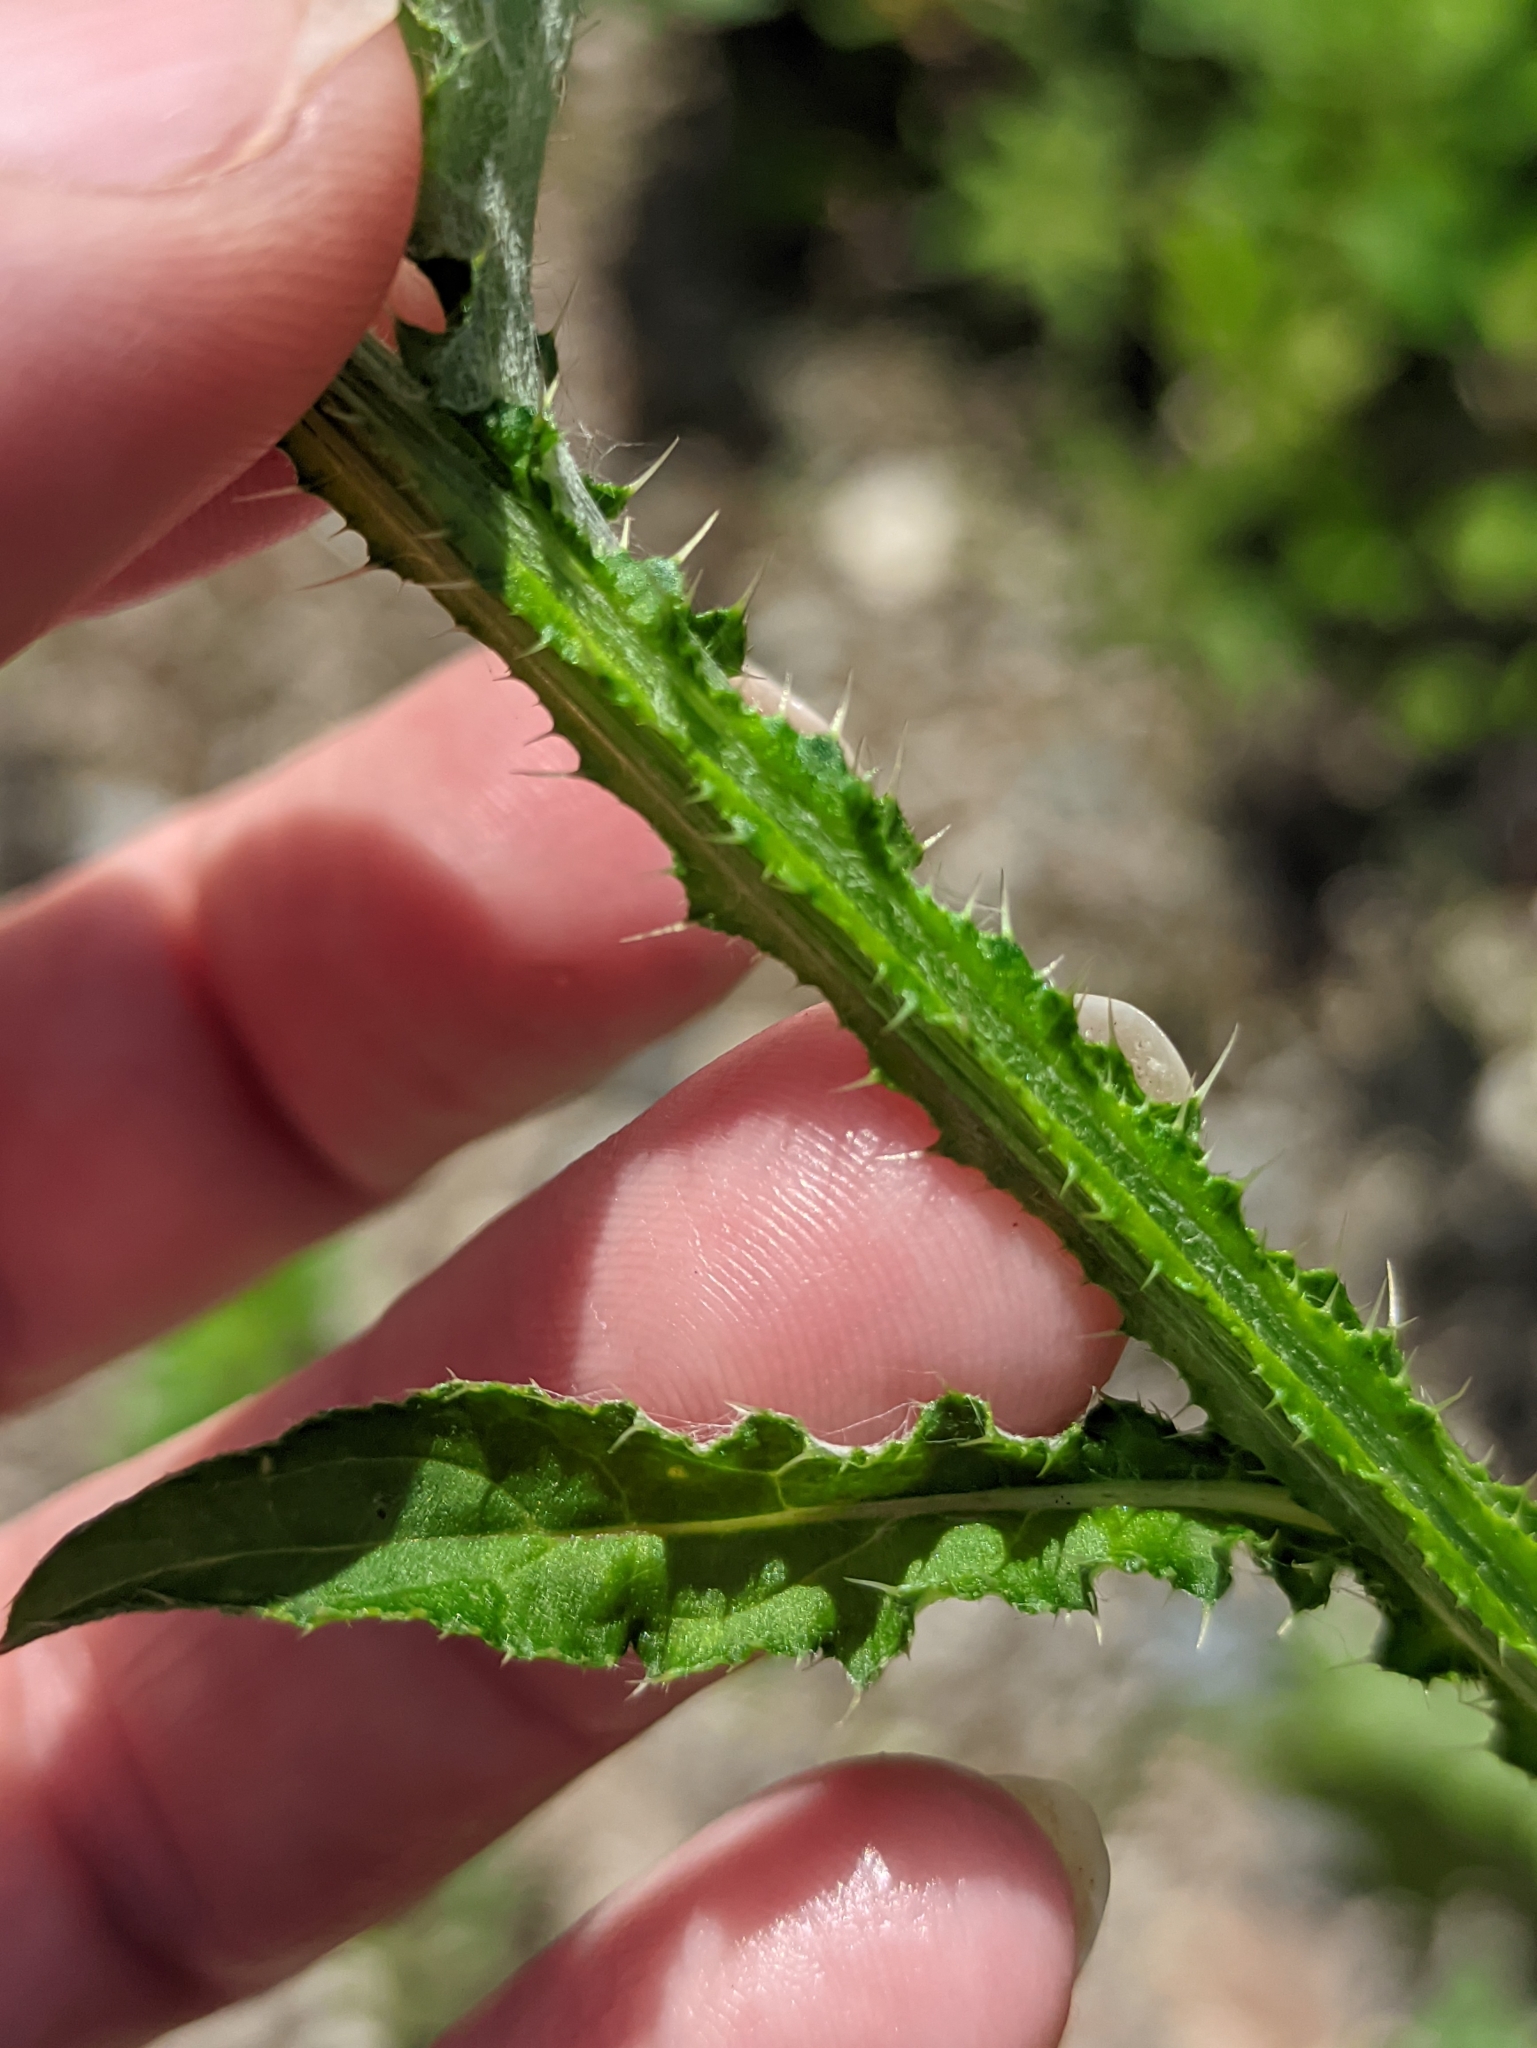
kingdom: Plantae
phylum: Tracheophyta
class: Magnoliopsida
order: Asterales
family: Asteraceae
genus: Carduus
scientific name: Carduus crispus
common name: Welted thistle
